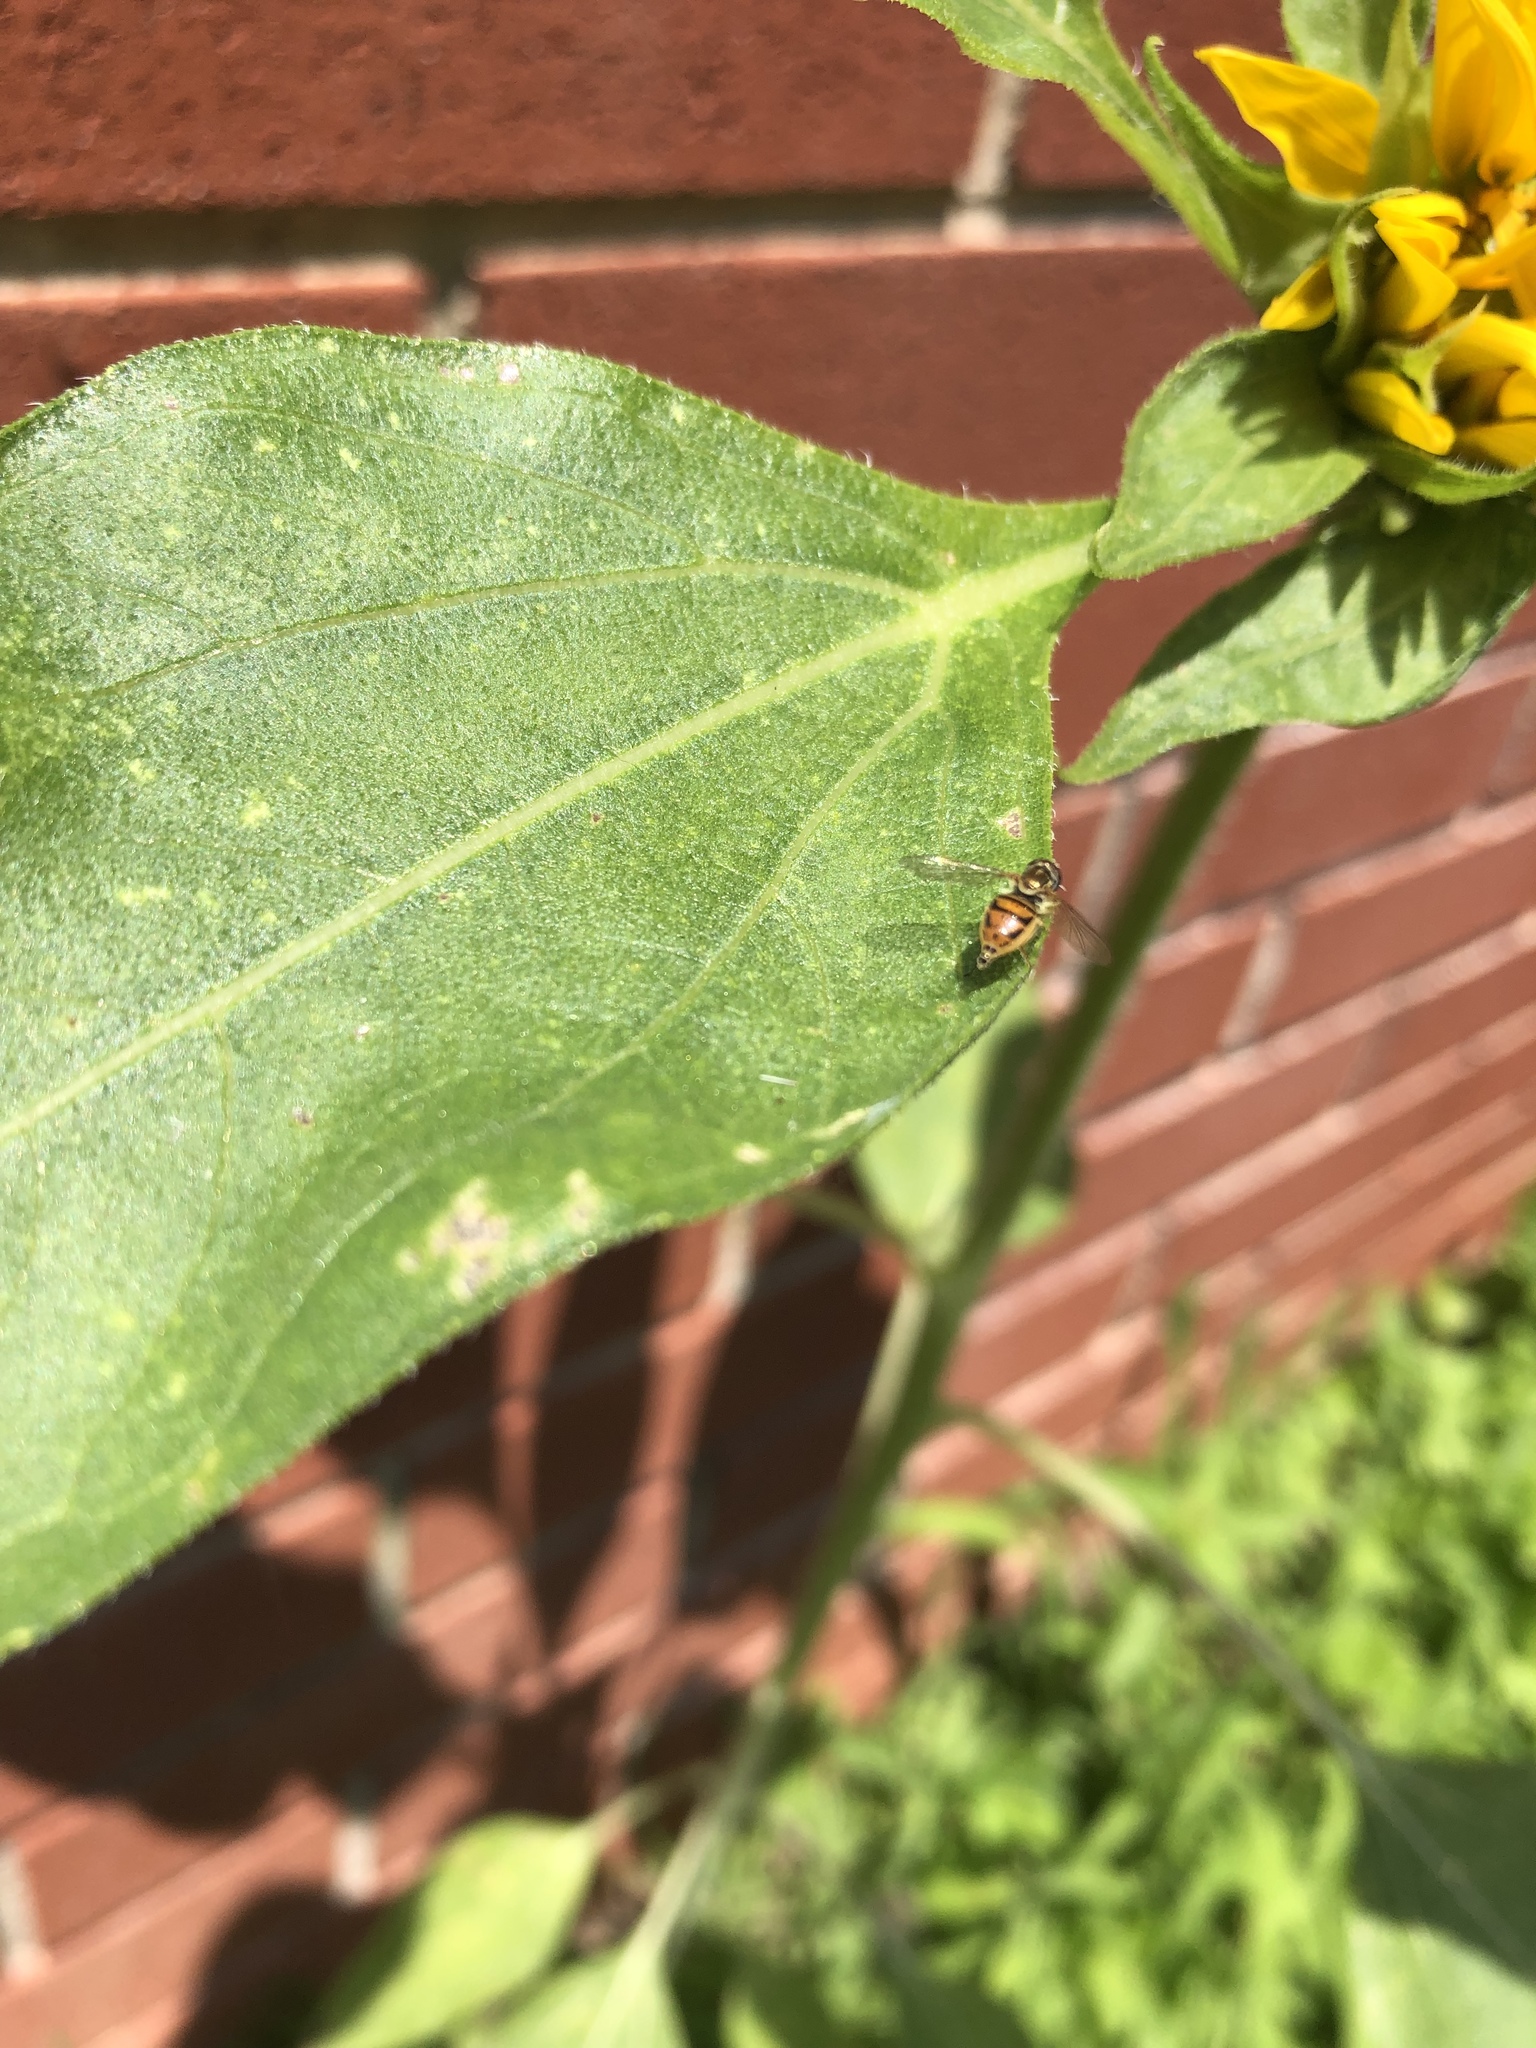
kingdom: Animalia
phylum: Arthropoda
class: Insecta
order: Diptera
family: Syrphidae
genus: Toxomerus
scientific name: Toxomerus marginatus
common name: Syrphid fly
